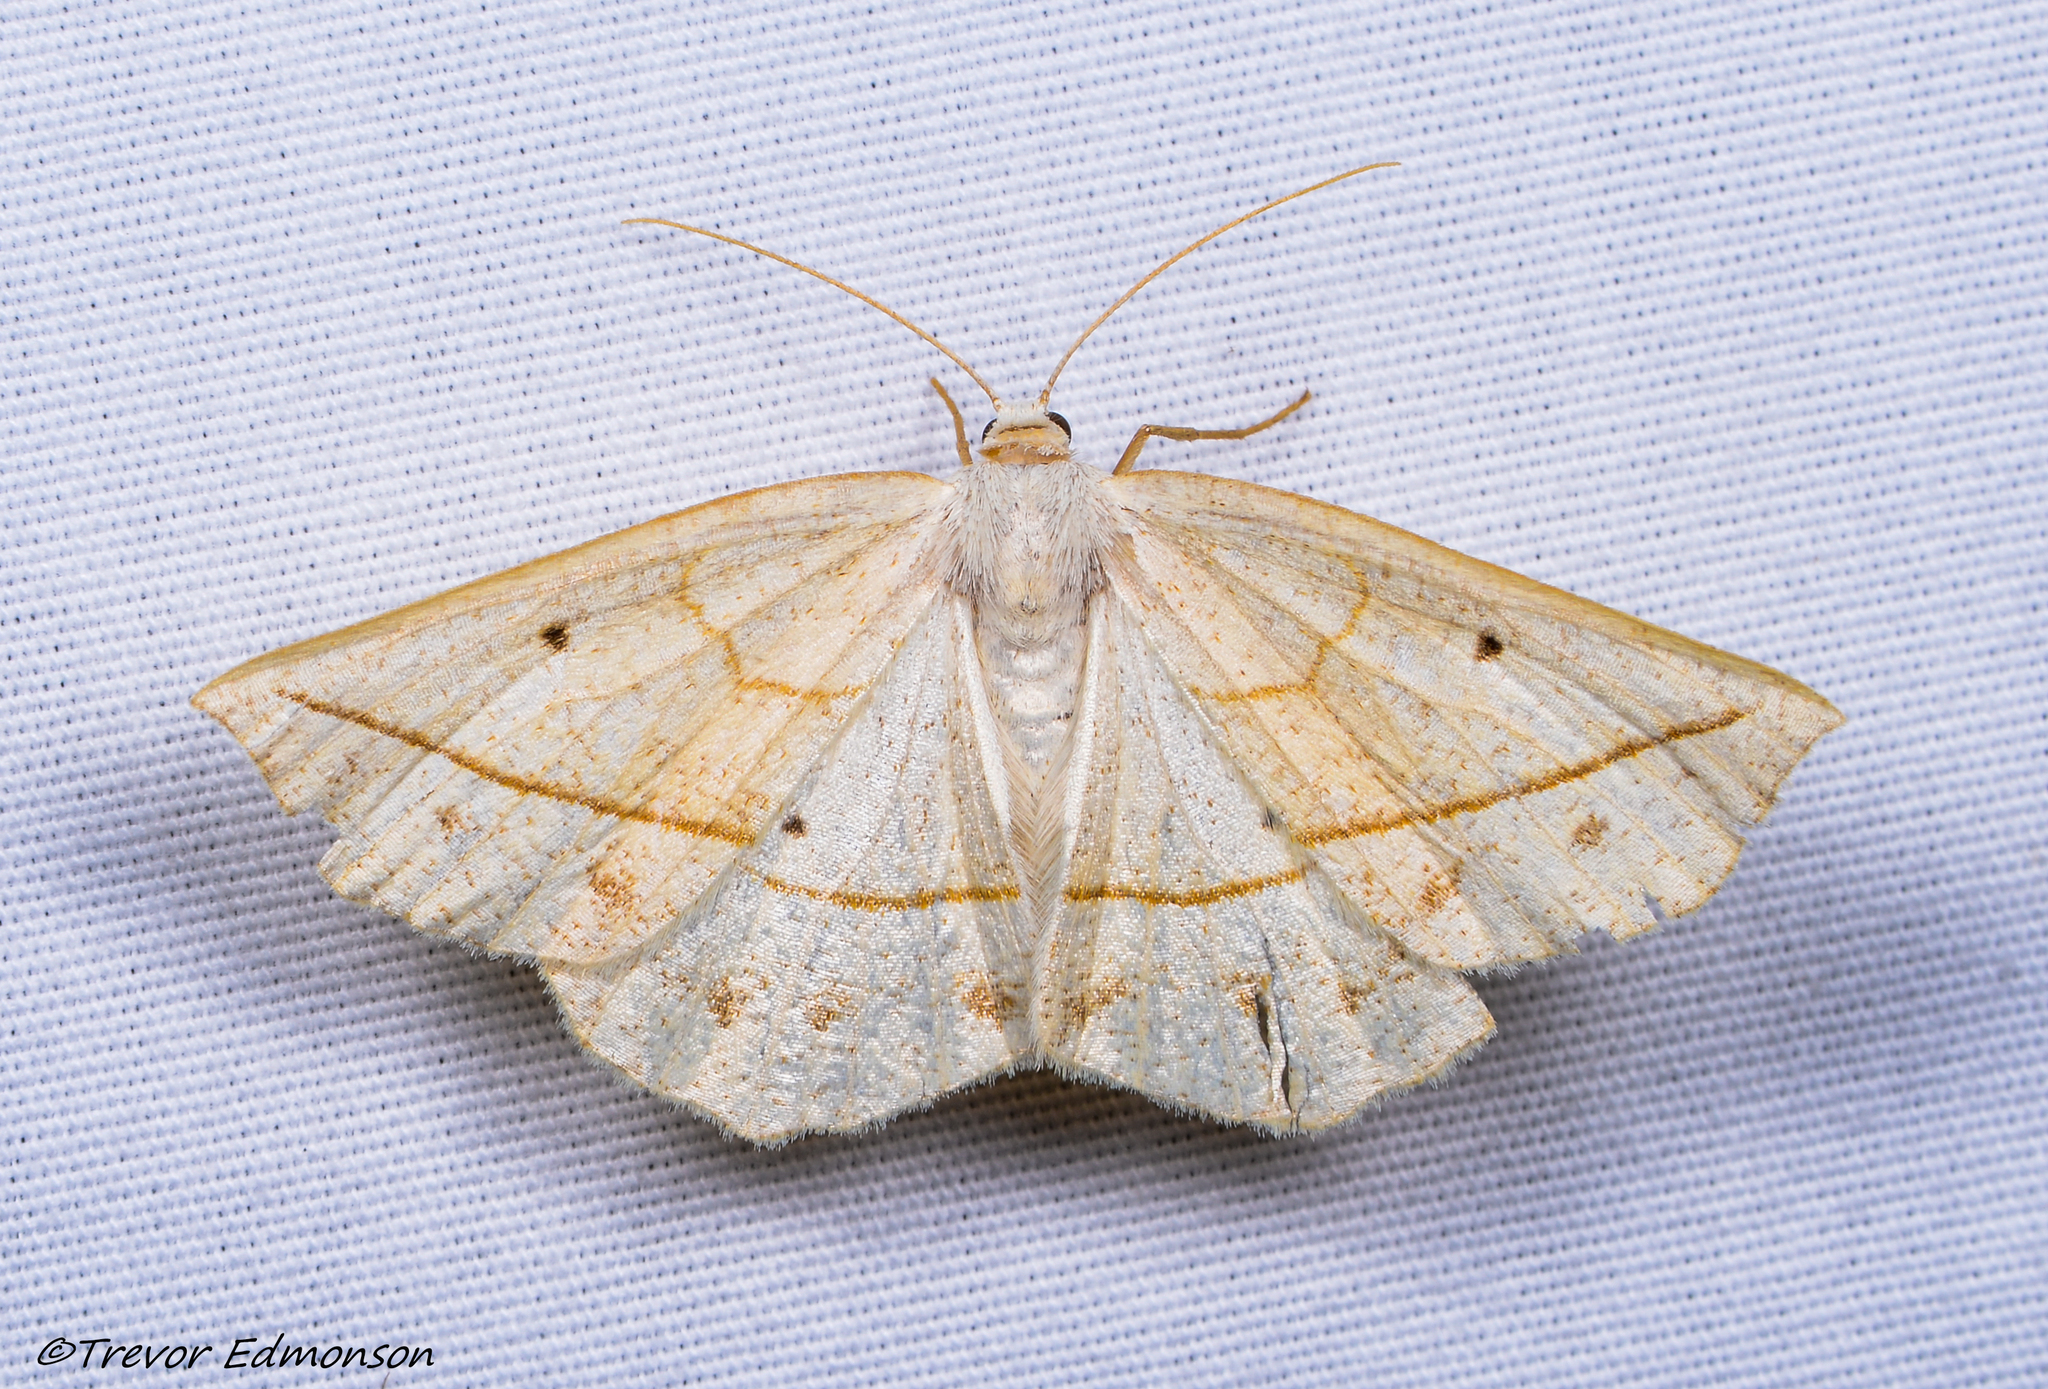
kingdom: Animalia
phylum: Arthropoda
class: Insecta
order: Lepidoptera
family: Geometridae
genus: Eusarca
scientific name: Eusarca confusaria
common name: Confused eusarca
